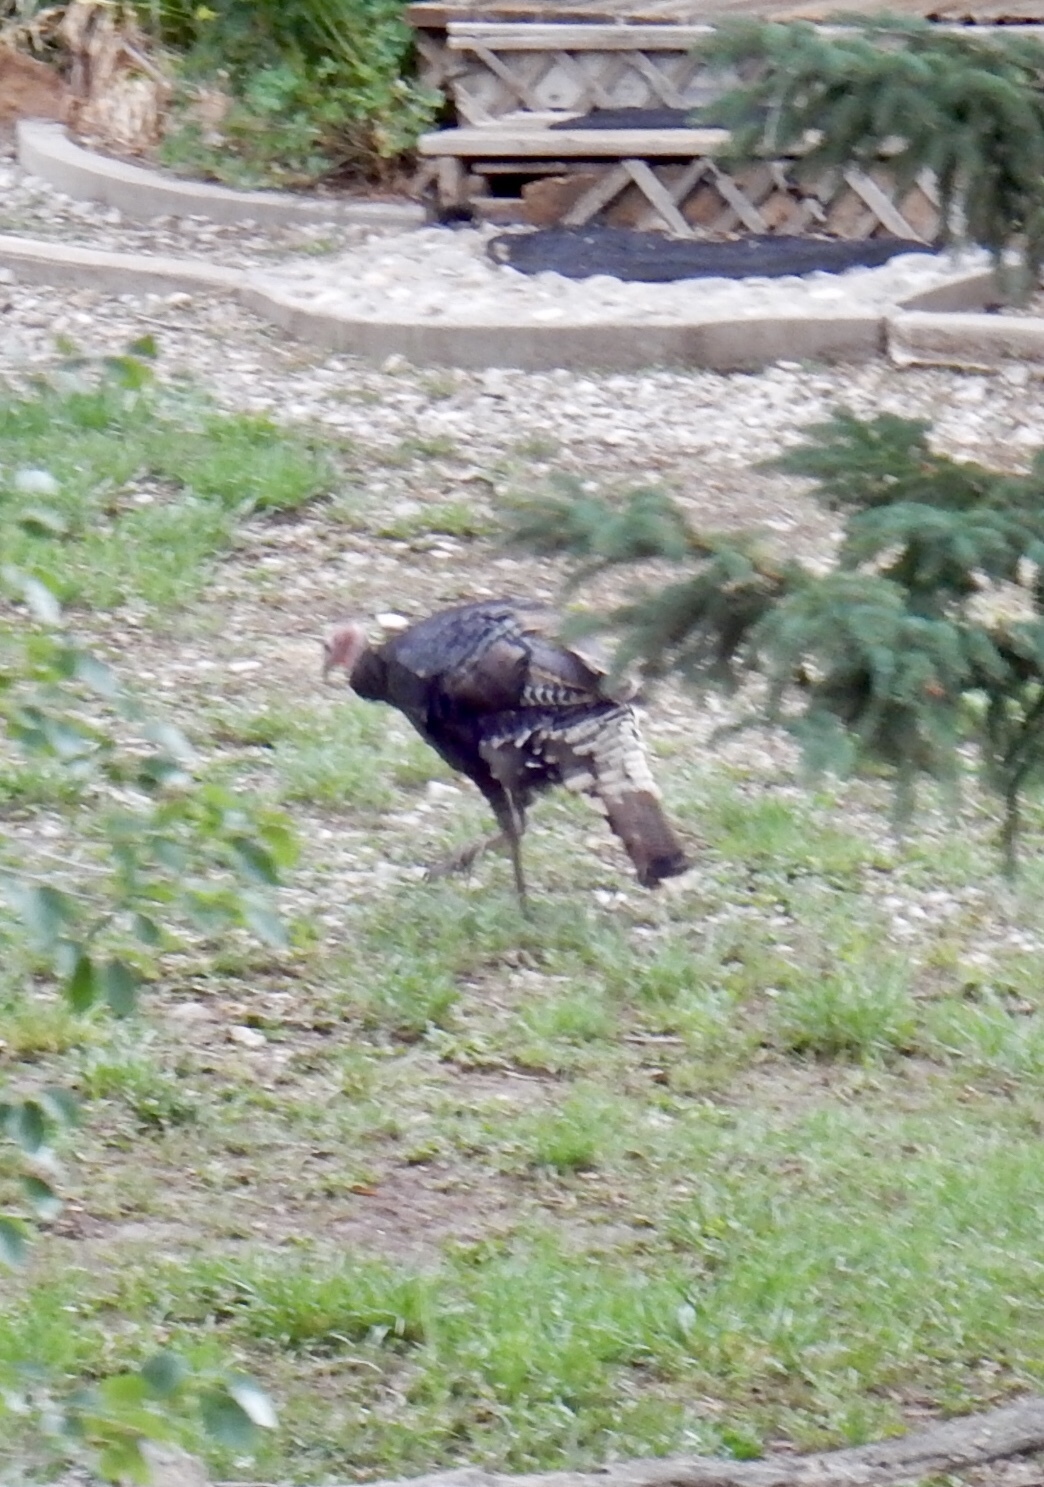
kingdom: Animalia
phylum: Chordata
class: Aves
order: Galliformes
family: Phasianidae
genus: Meleagris
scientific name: Meleagris gallopavo
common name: Wild turkey
